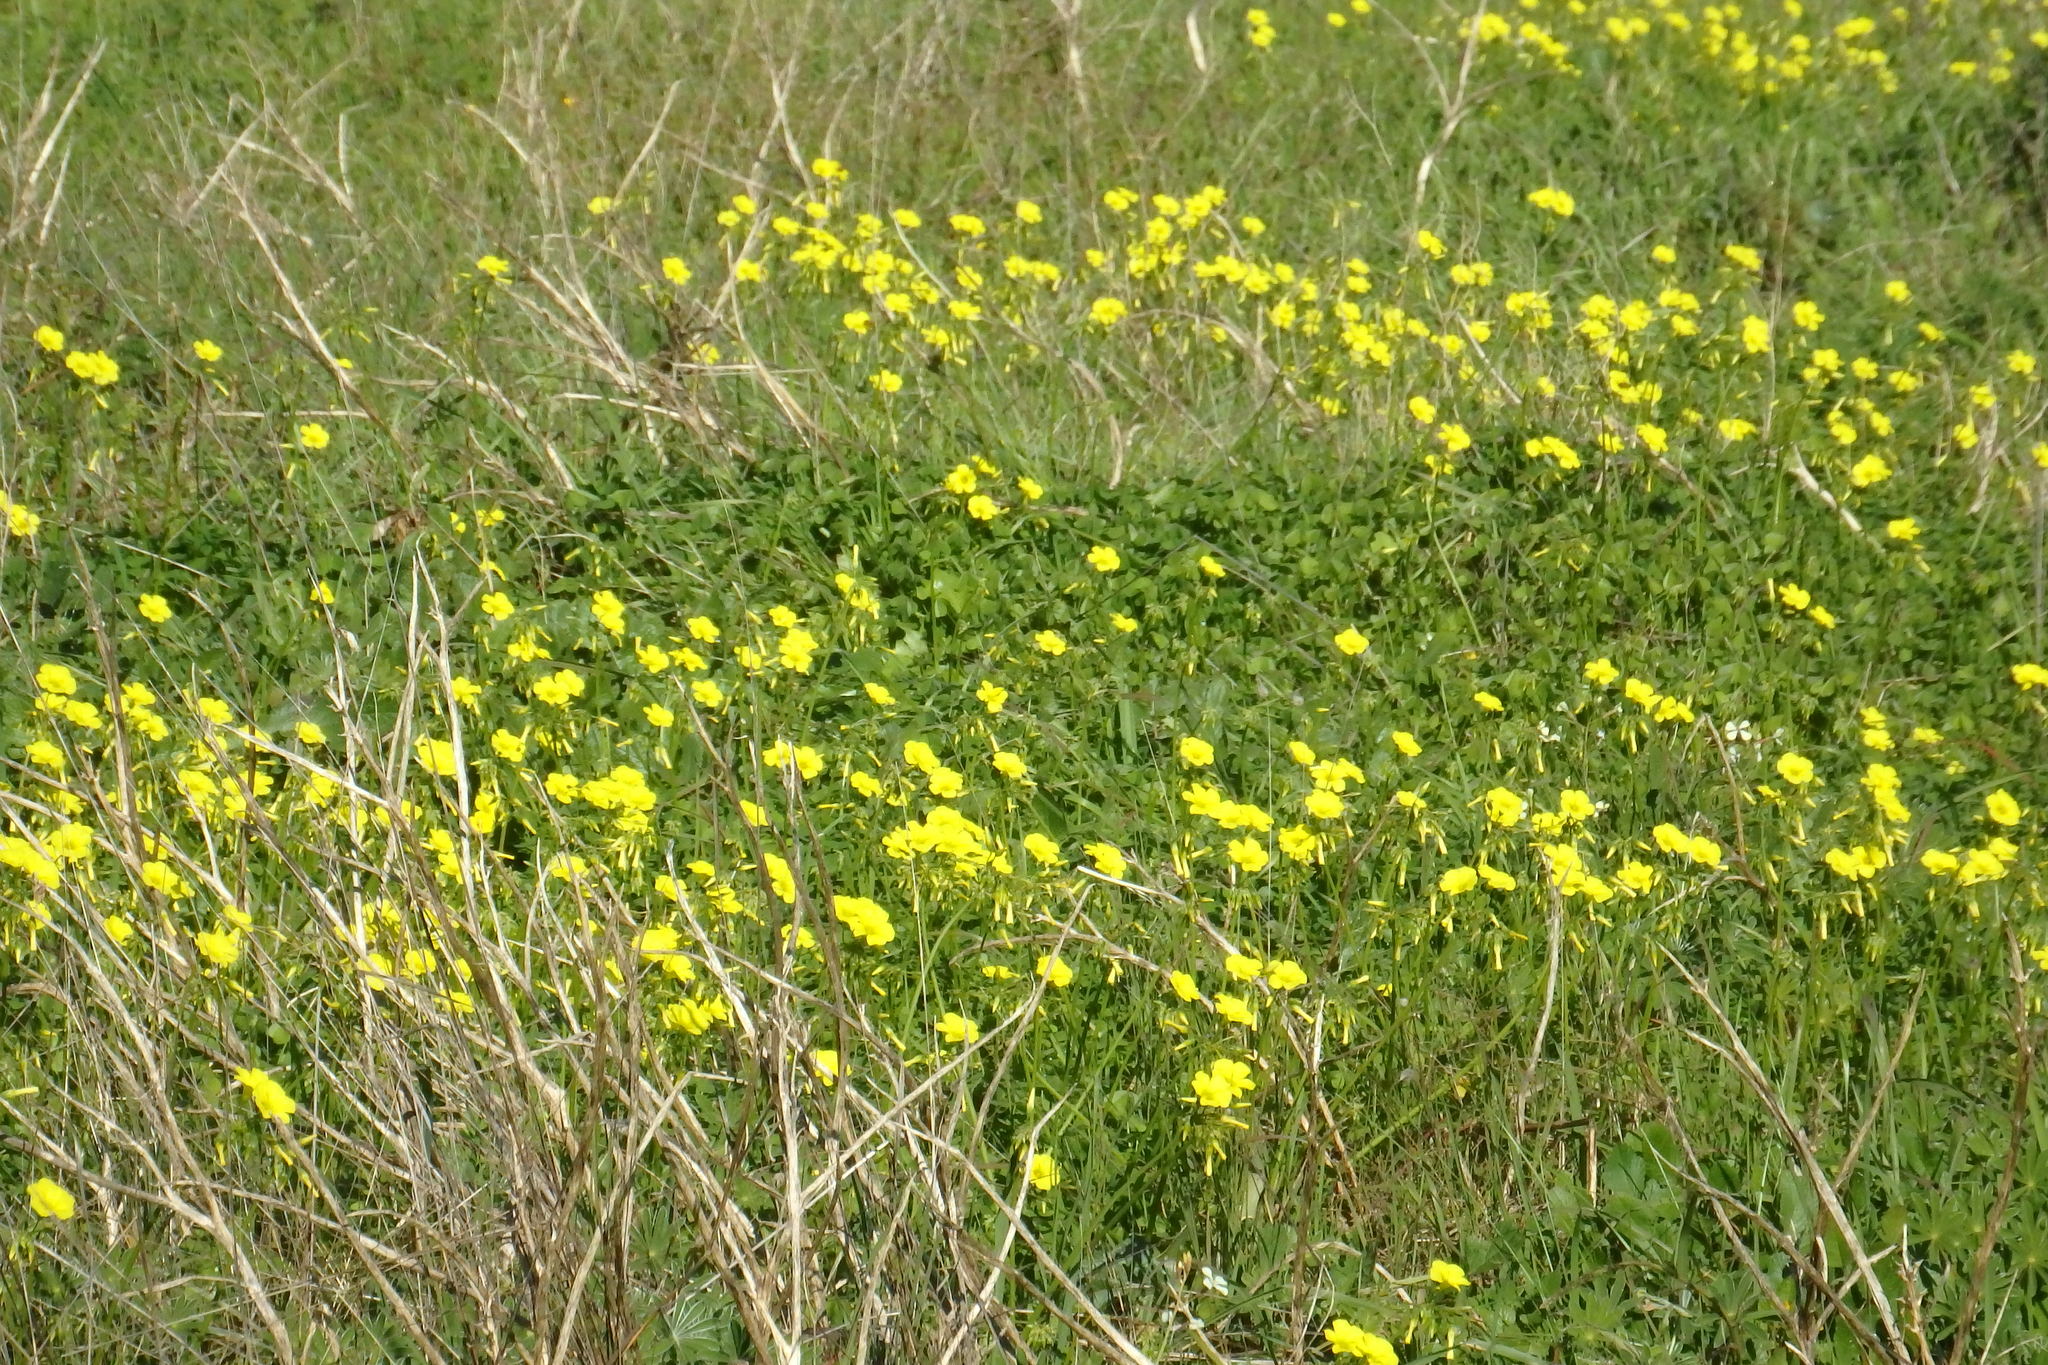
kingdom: Plantae
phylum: Tracheophyta
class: Magnoliopsida
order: Oxalidales
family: Oxalidaceae
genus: Oxalis
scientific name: Oxalis pes-caprae
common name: Bermuda-buttercup
